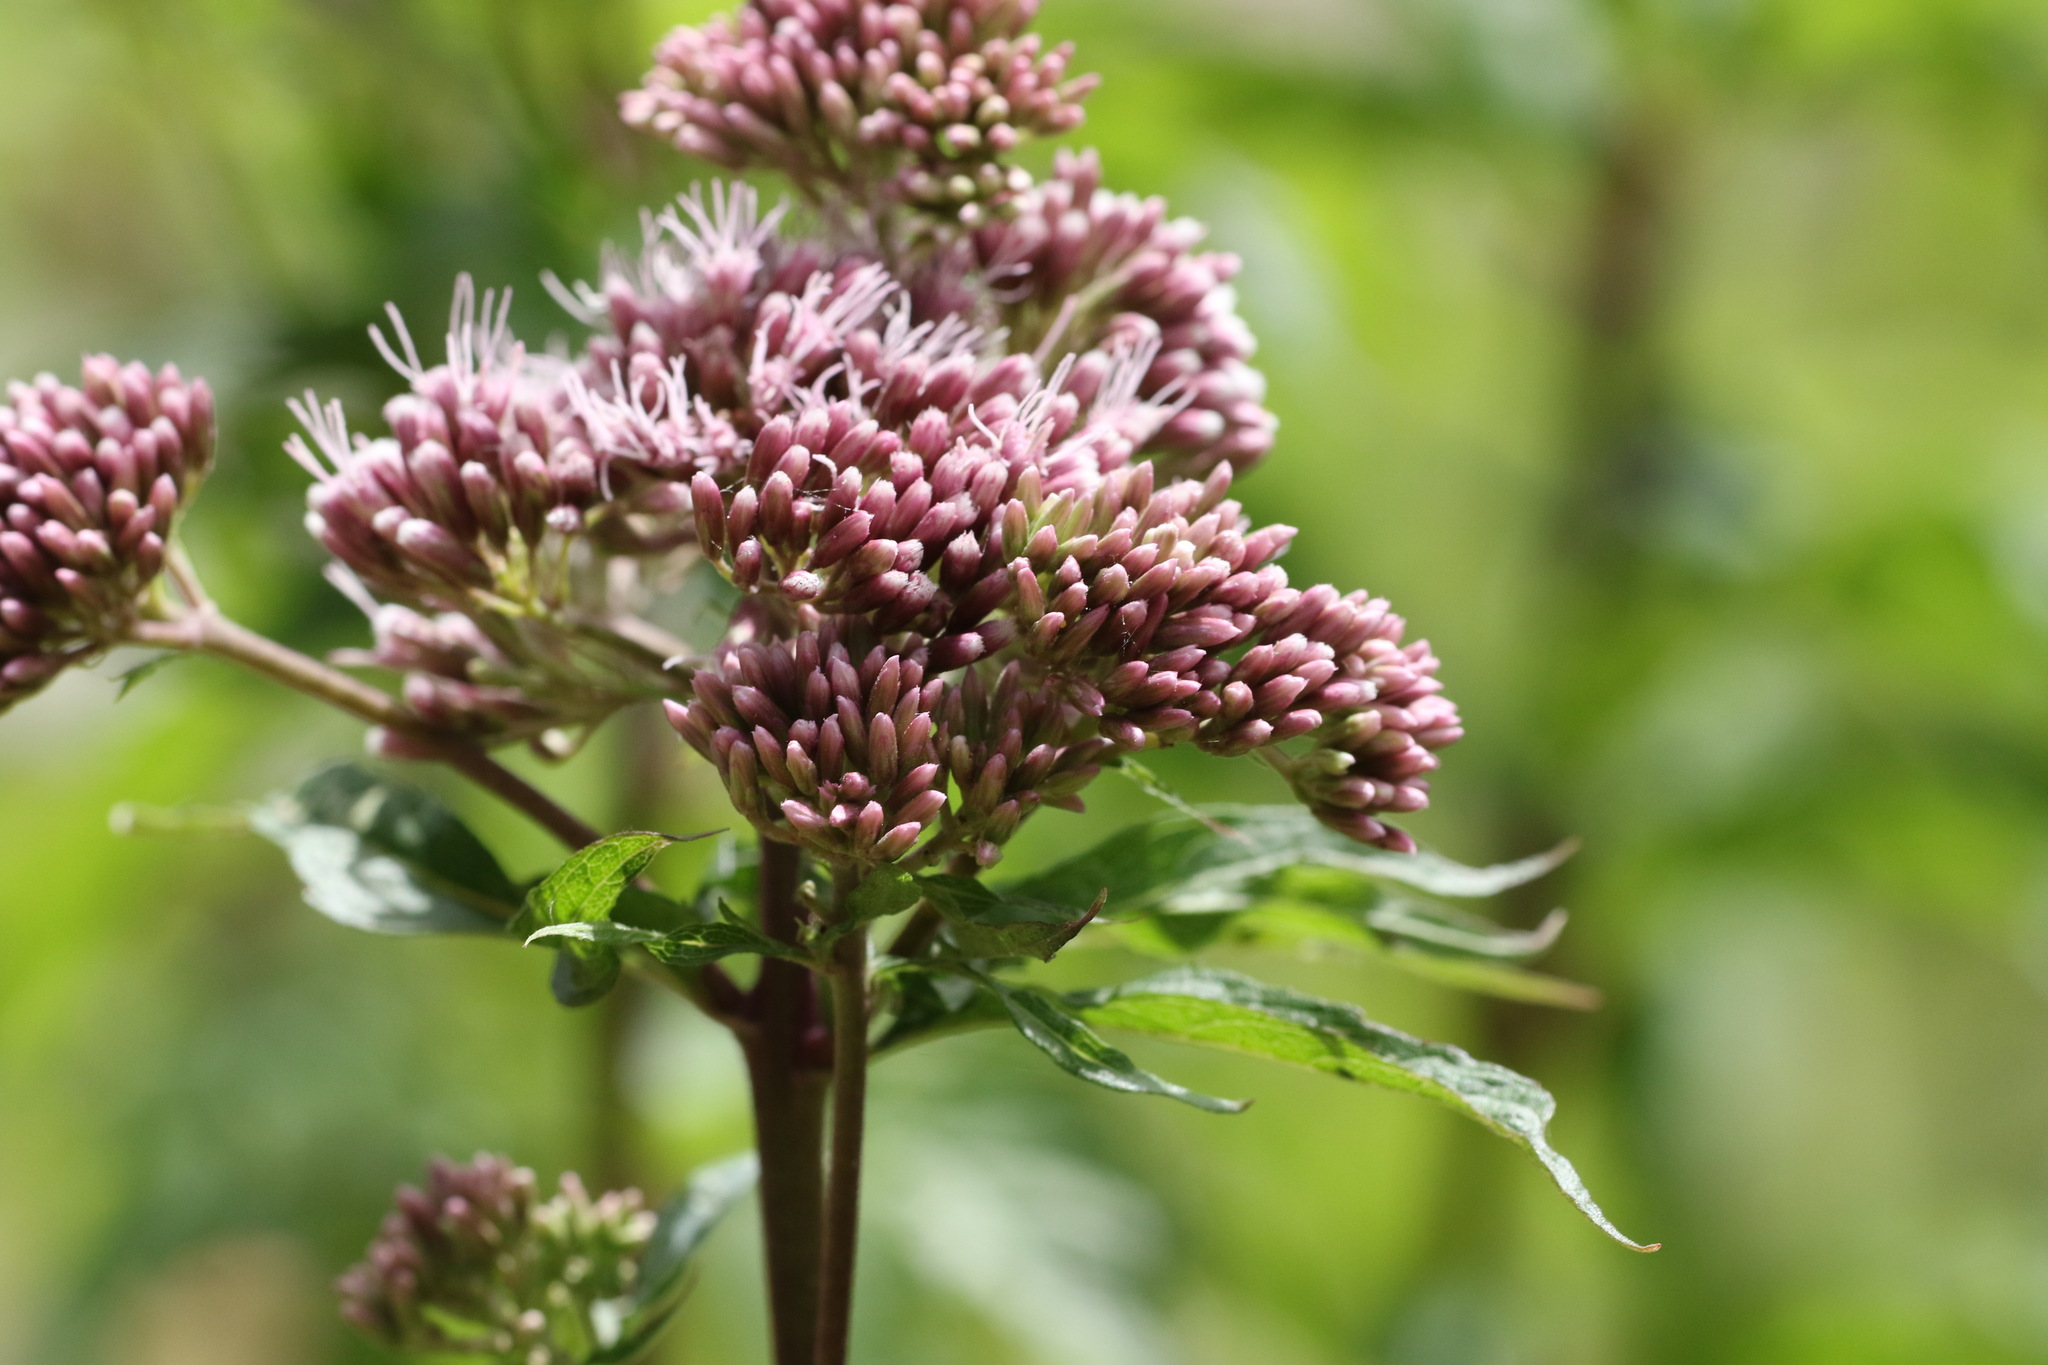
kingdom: Plantae
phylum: Tracheophyta
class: Magnoliopsida
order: Asterales
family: Asteraceae
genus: Eupatorium
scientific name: Eupatorium cannabinum
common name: Hemp-agrimony
